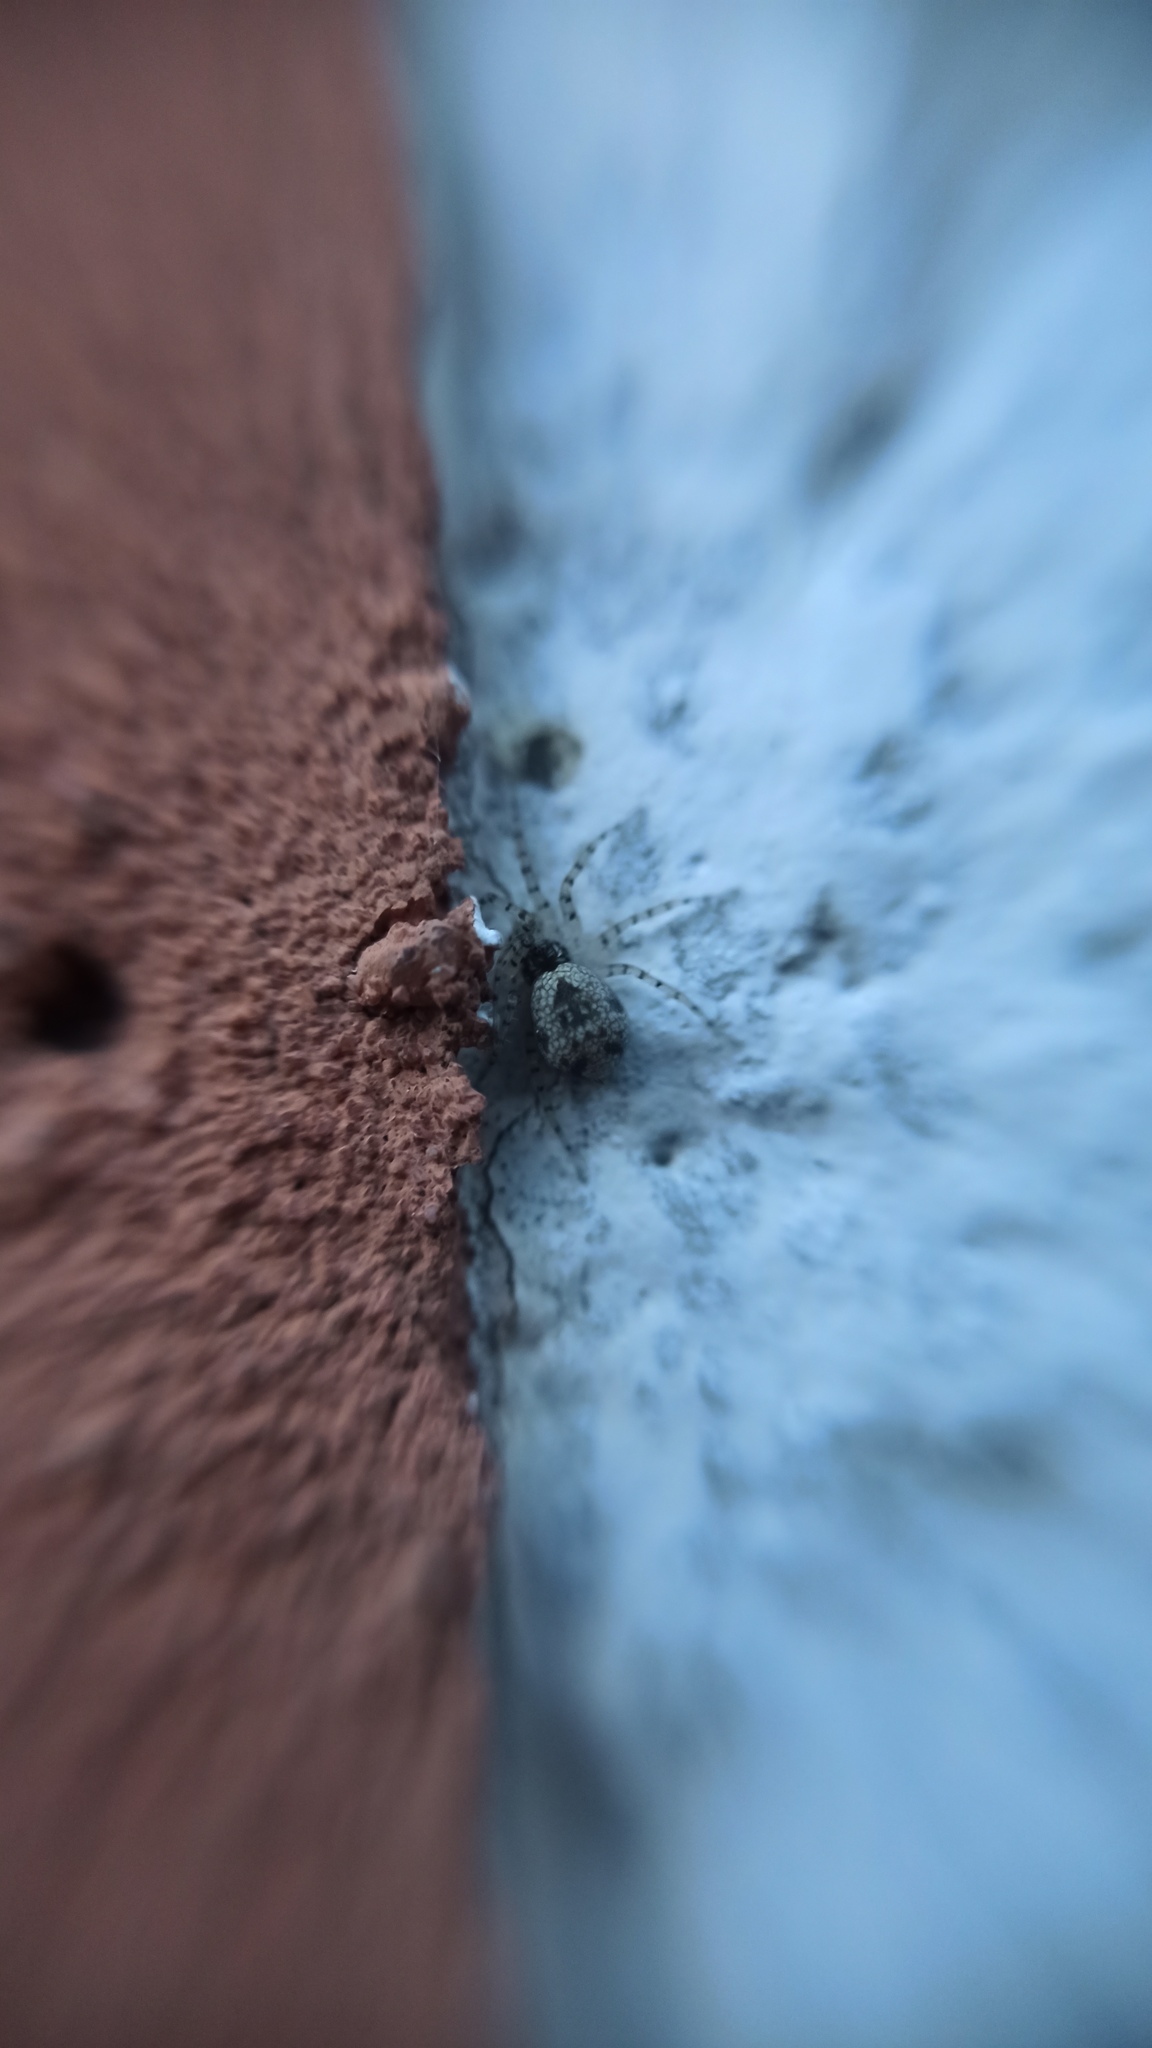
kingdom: Animalia
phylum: Arthropoda
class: Arachnida
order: Araneae
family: Oecobiidae
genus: Oecobius
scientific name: Oecobius maculatus
